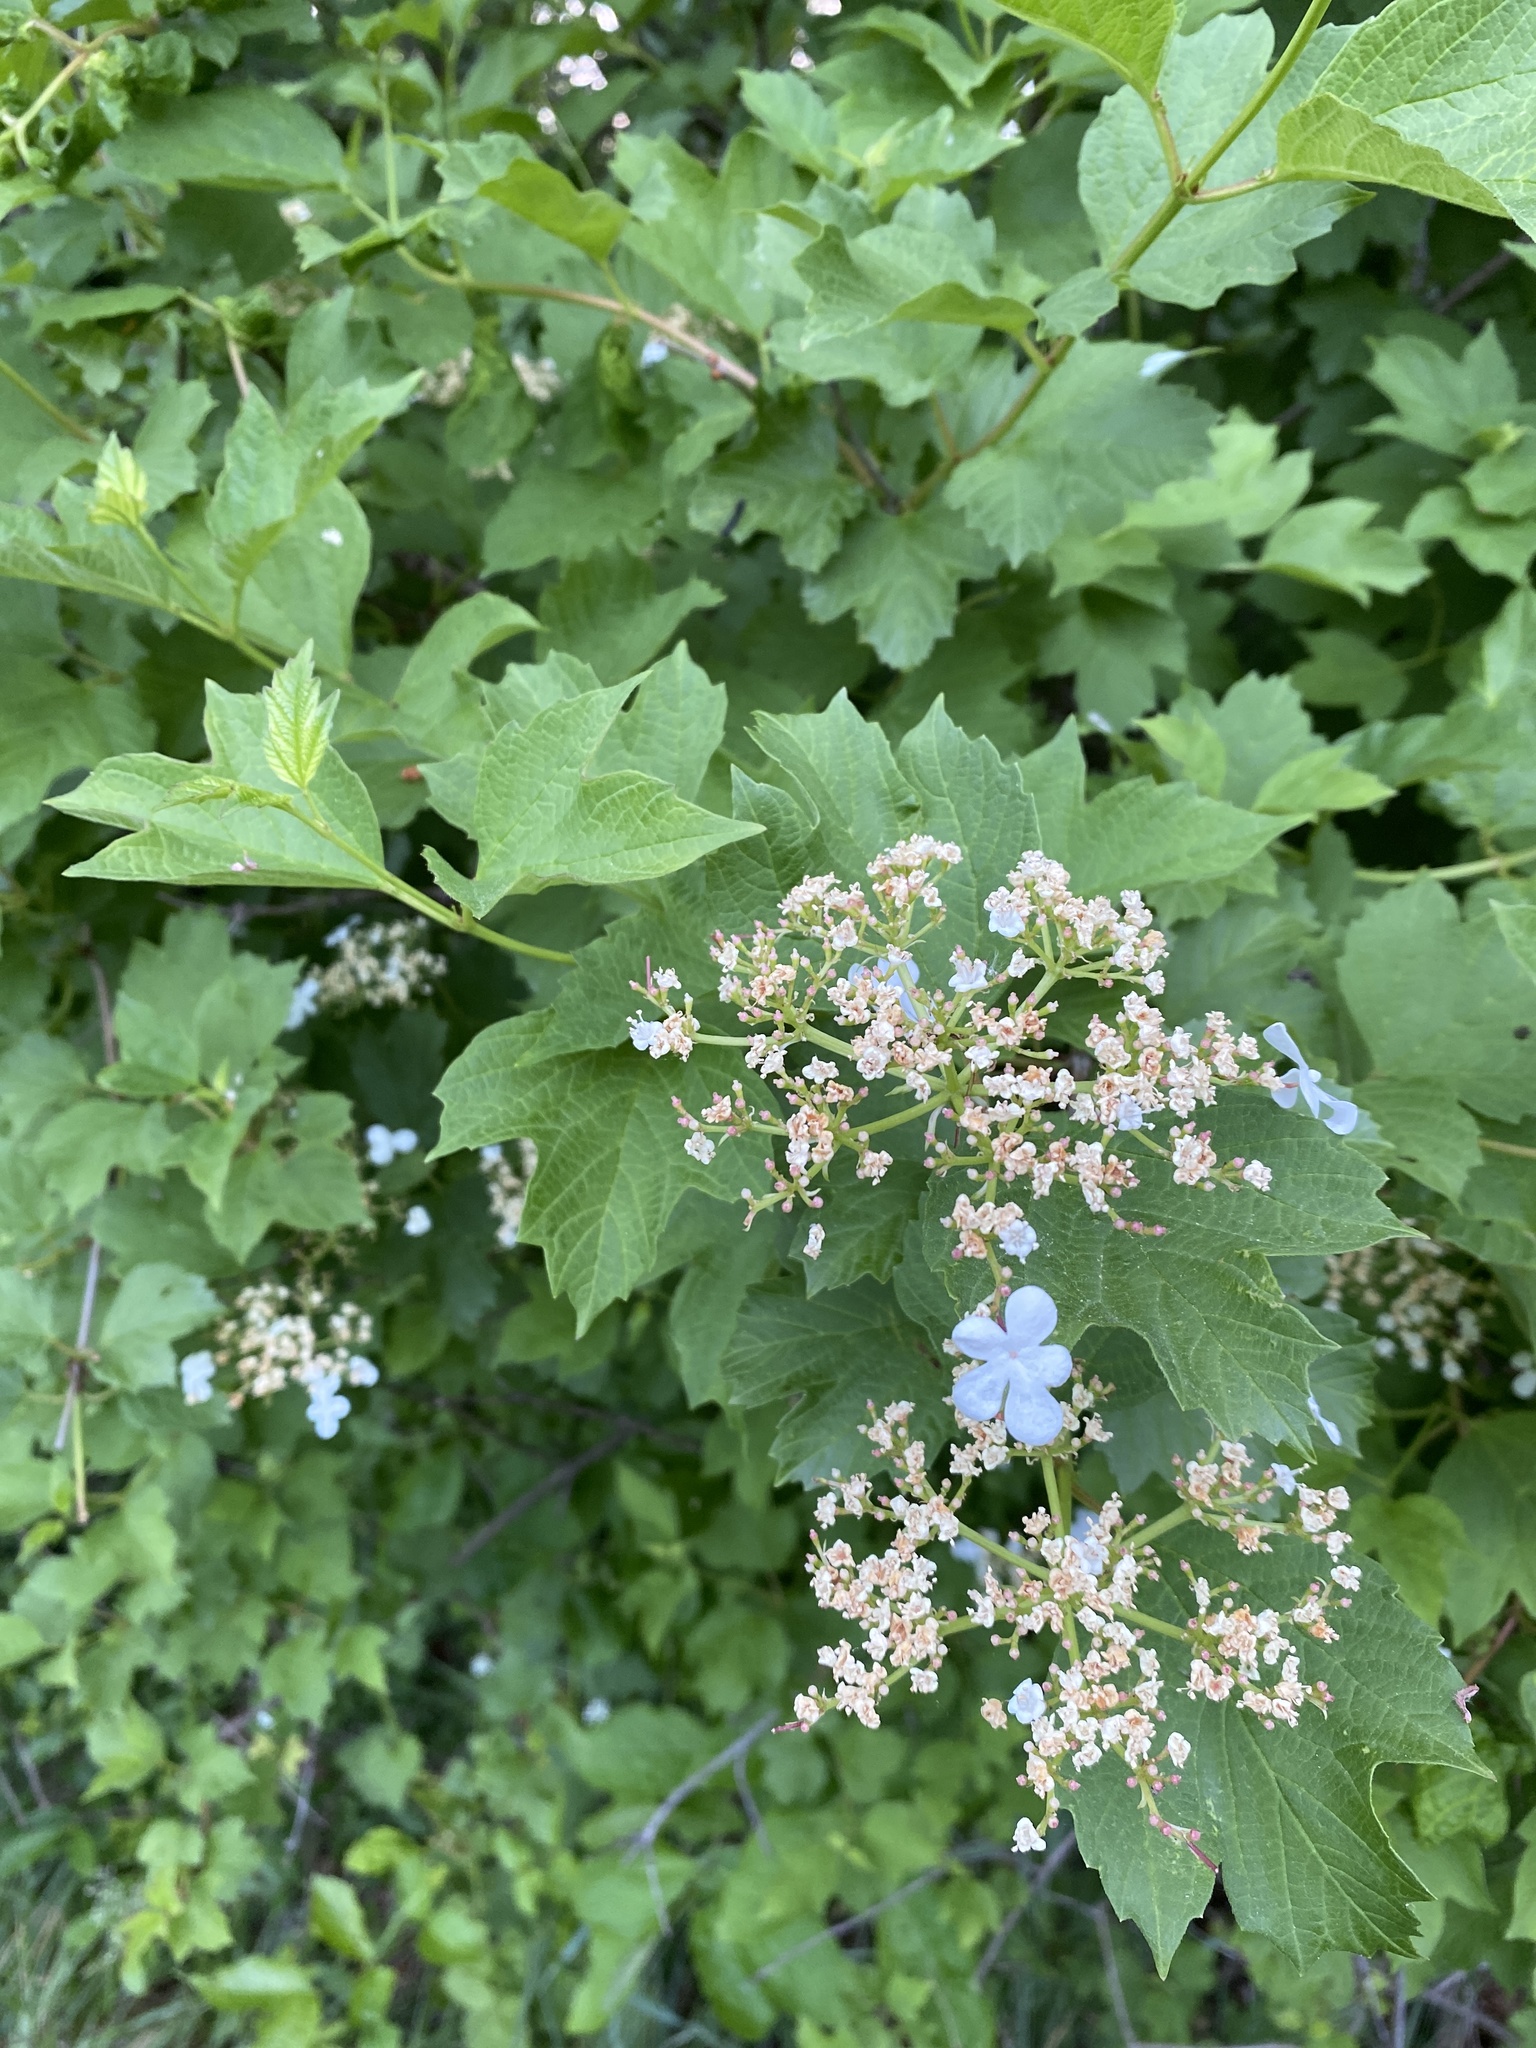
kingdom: Plantae
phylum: Tracheophyta
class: Magnoliopsida
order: Dipsacales
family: Viburnaceae
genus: Viburnum
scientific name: Viburnum opulus
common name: Guelder-rose
